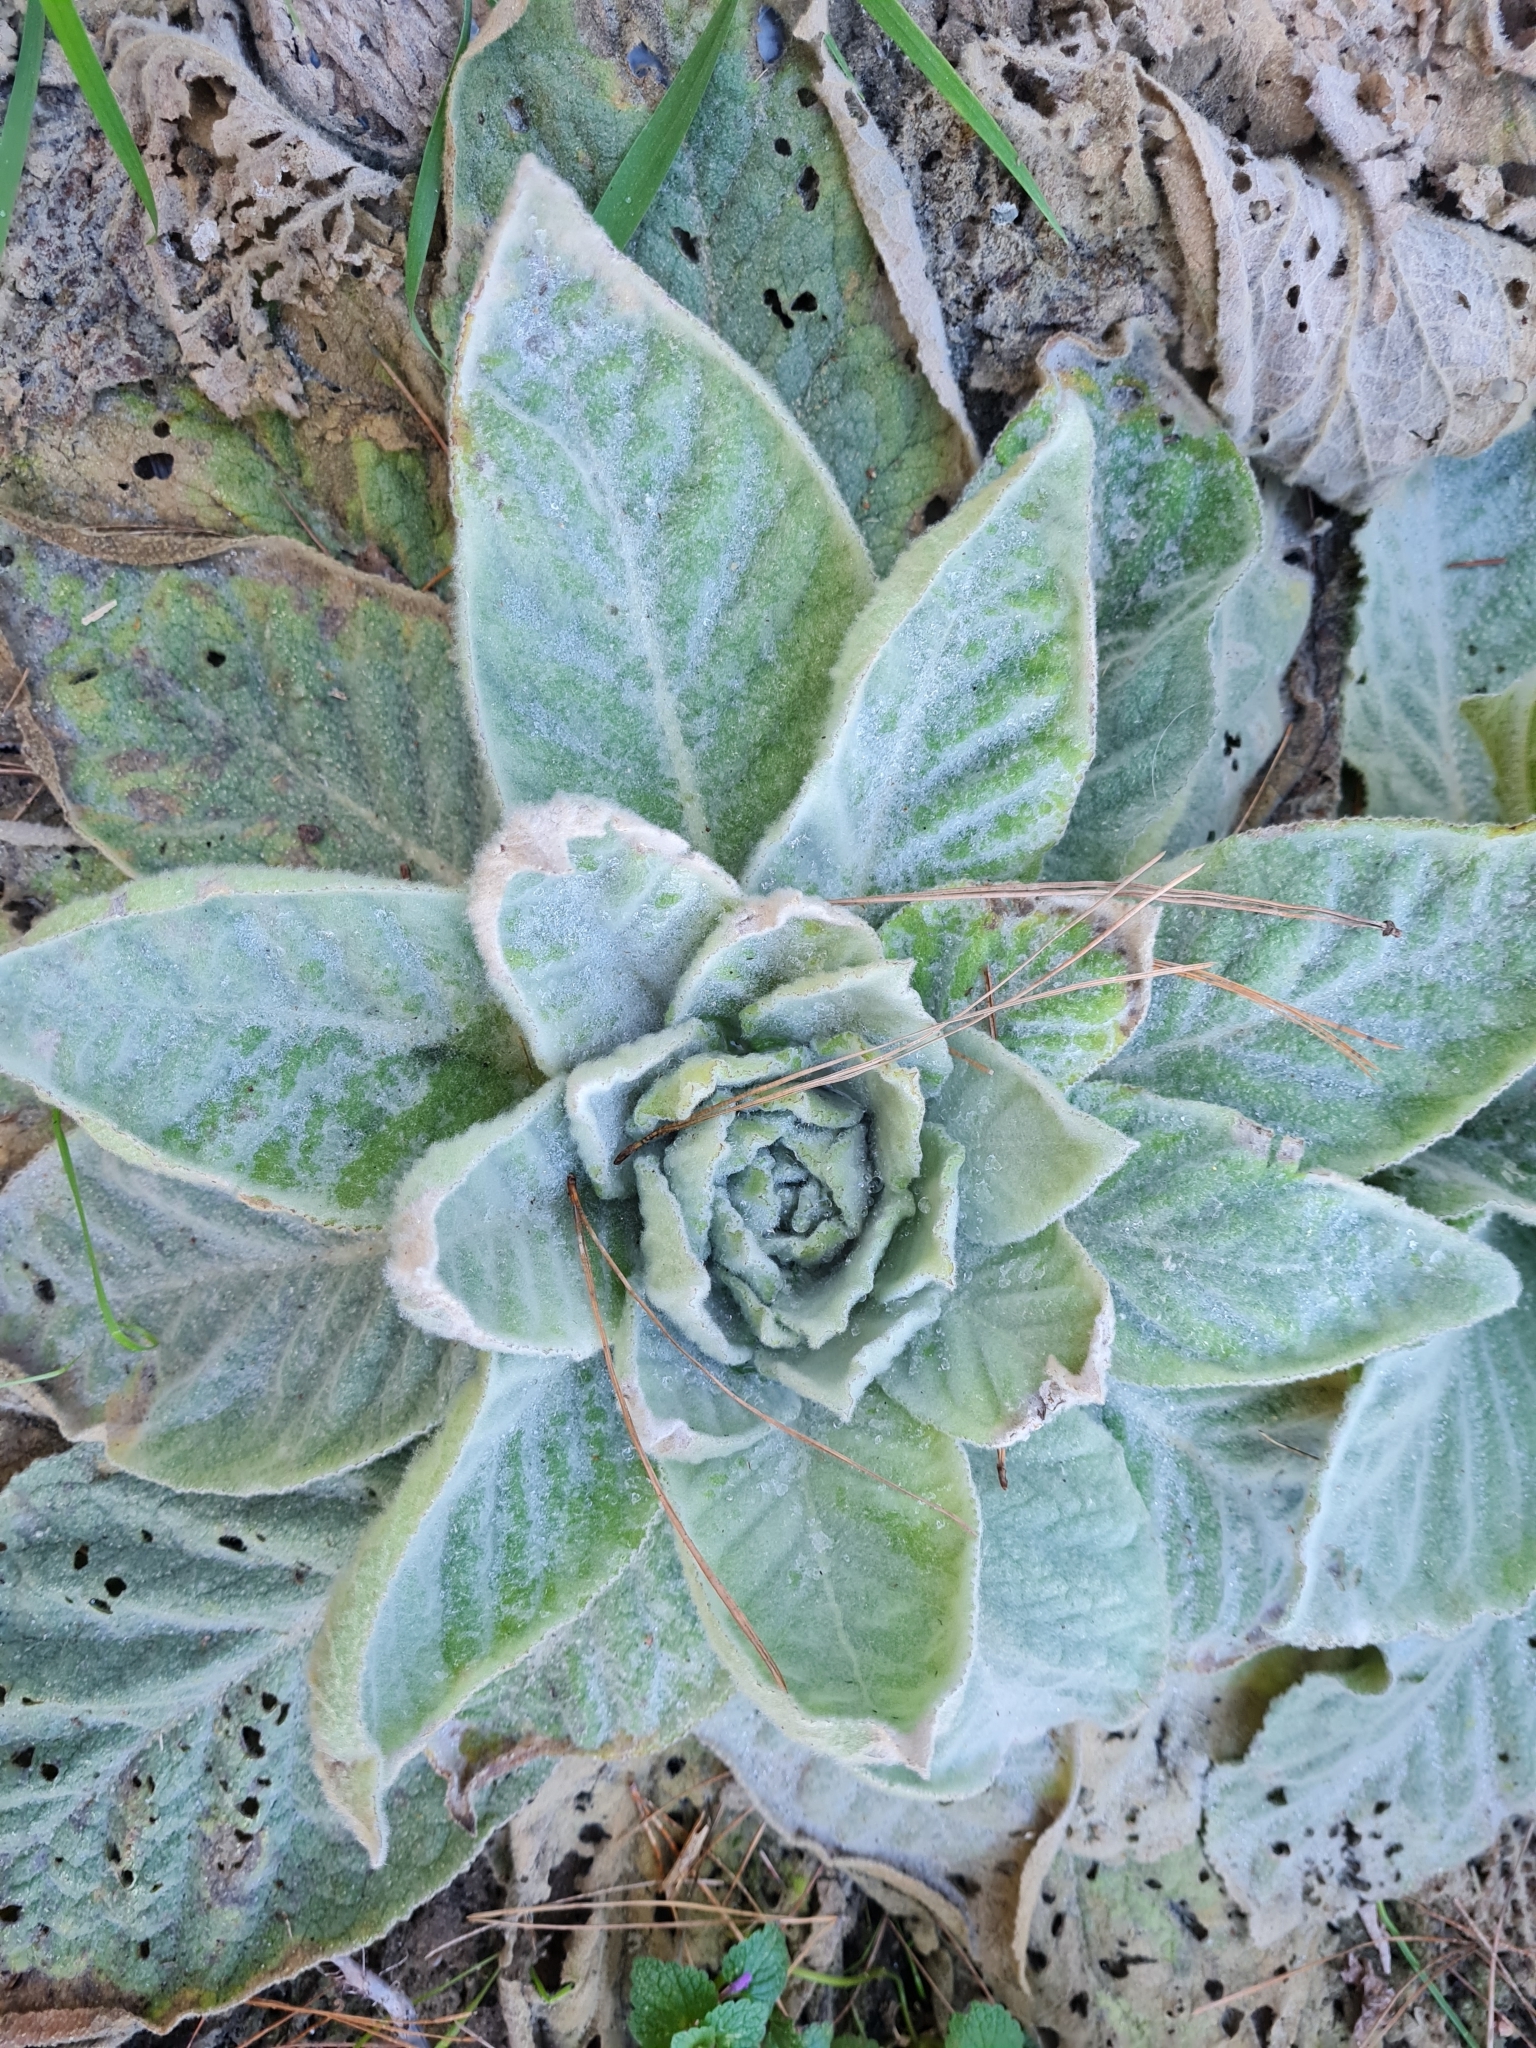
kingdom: Plantae
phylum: Tracheophyta
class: Magnoliopsida
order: Lamiales
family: Scrophulariaceae
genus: Verbascum
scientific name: Verbascum thapsus
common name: Common mullein
